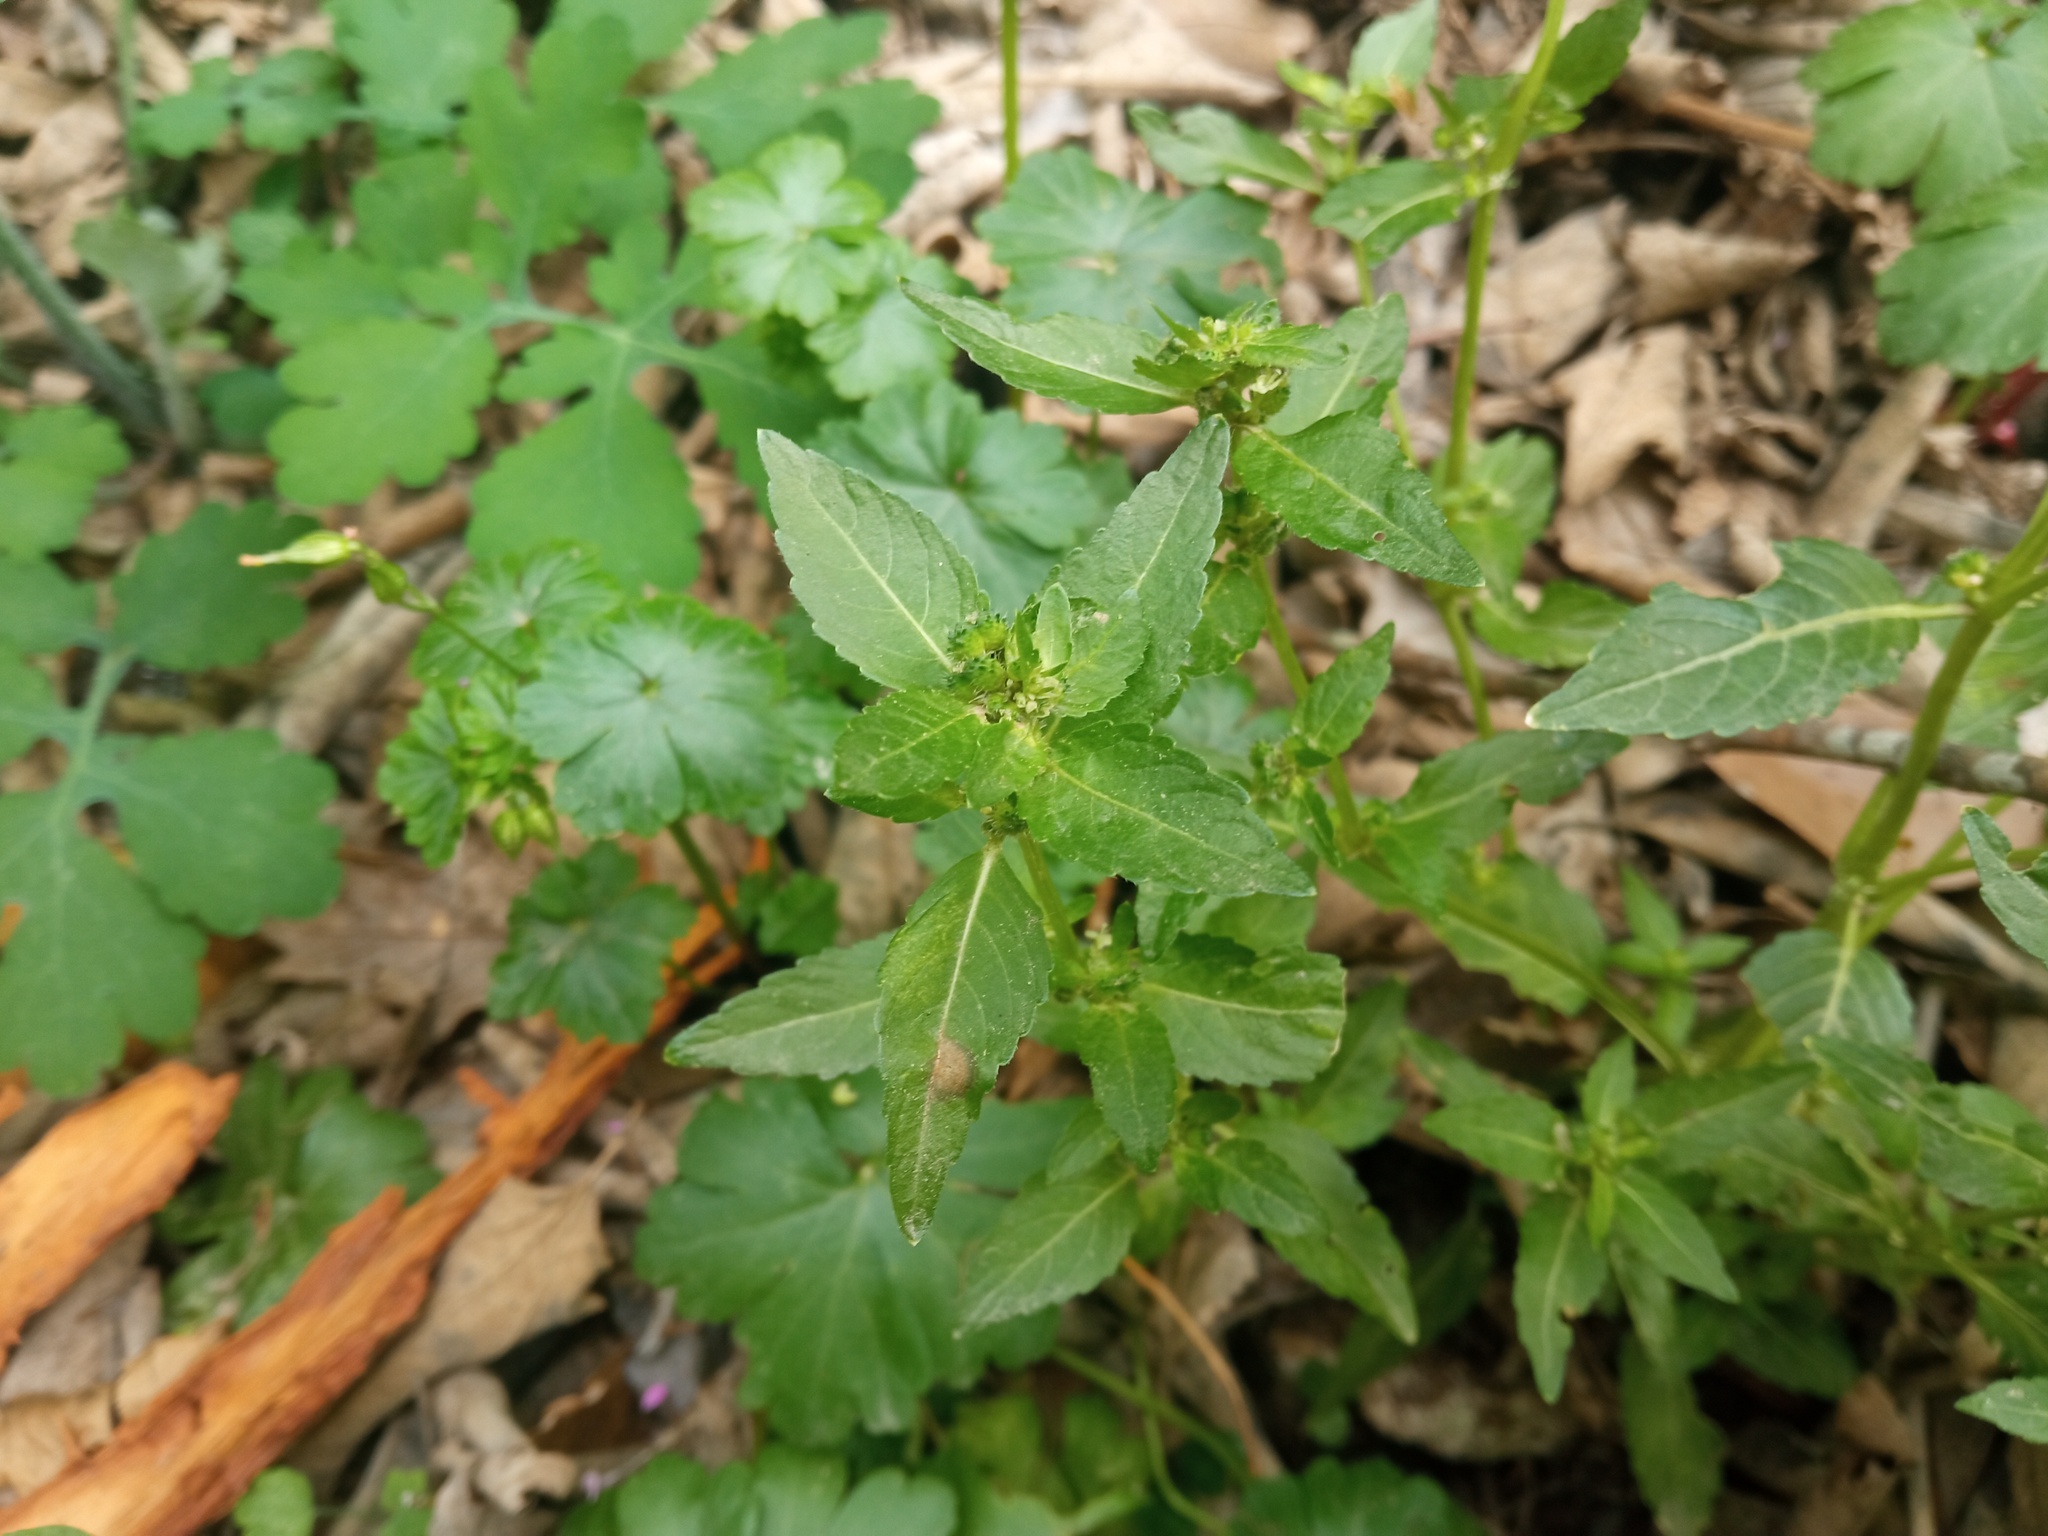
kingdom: Plantae
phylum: Tracheophyta
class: Magnoliopsida
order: Malpighiales
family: Euphorbiaceae
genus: Mercurialis
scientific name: Mercurialis annua
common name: Annual mercury
